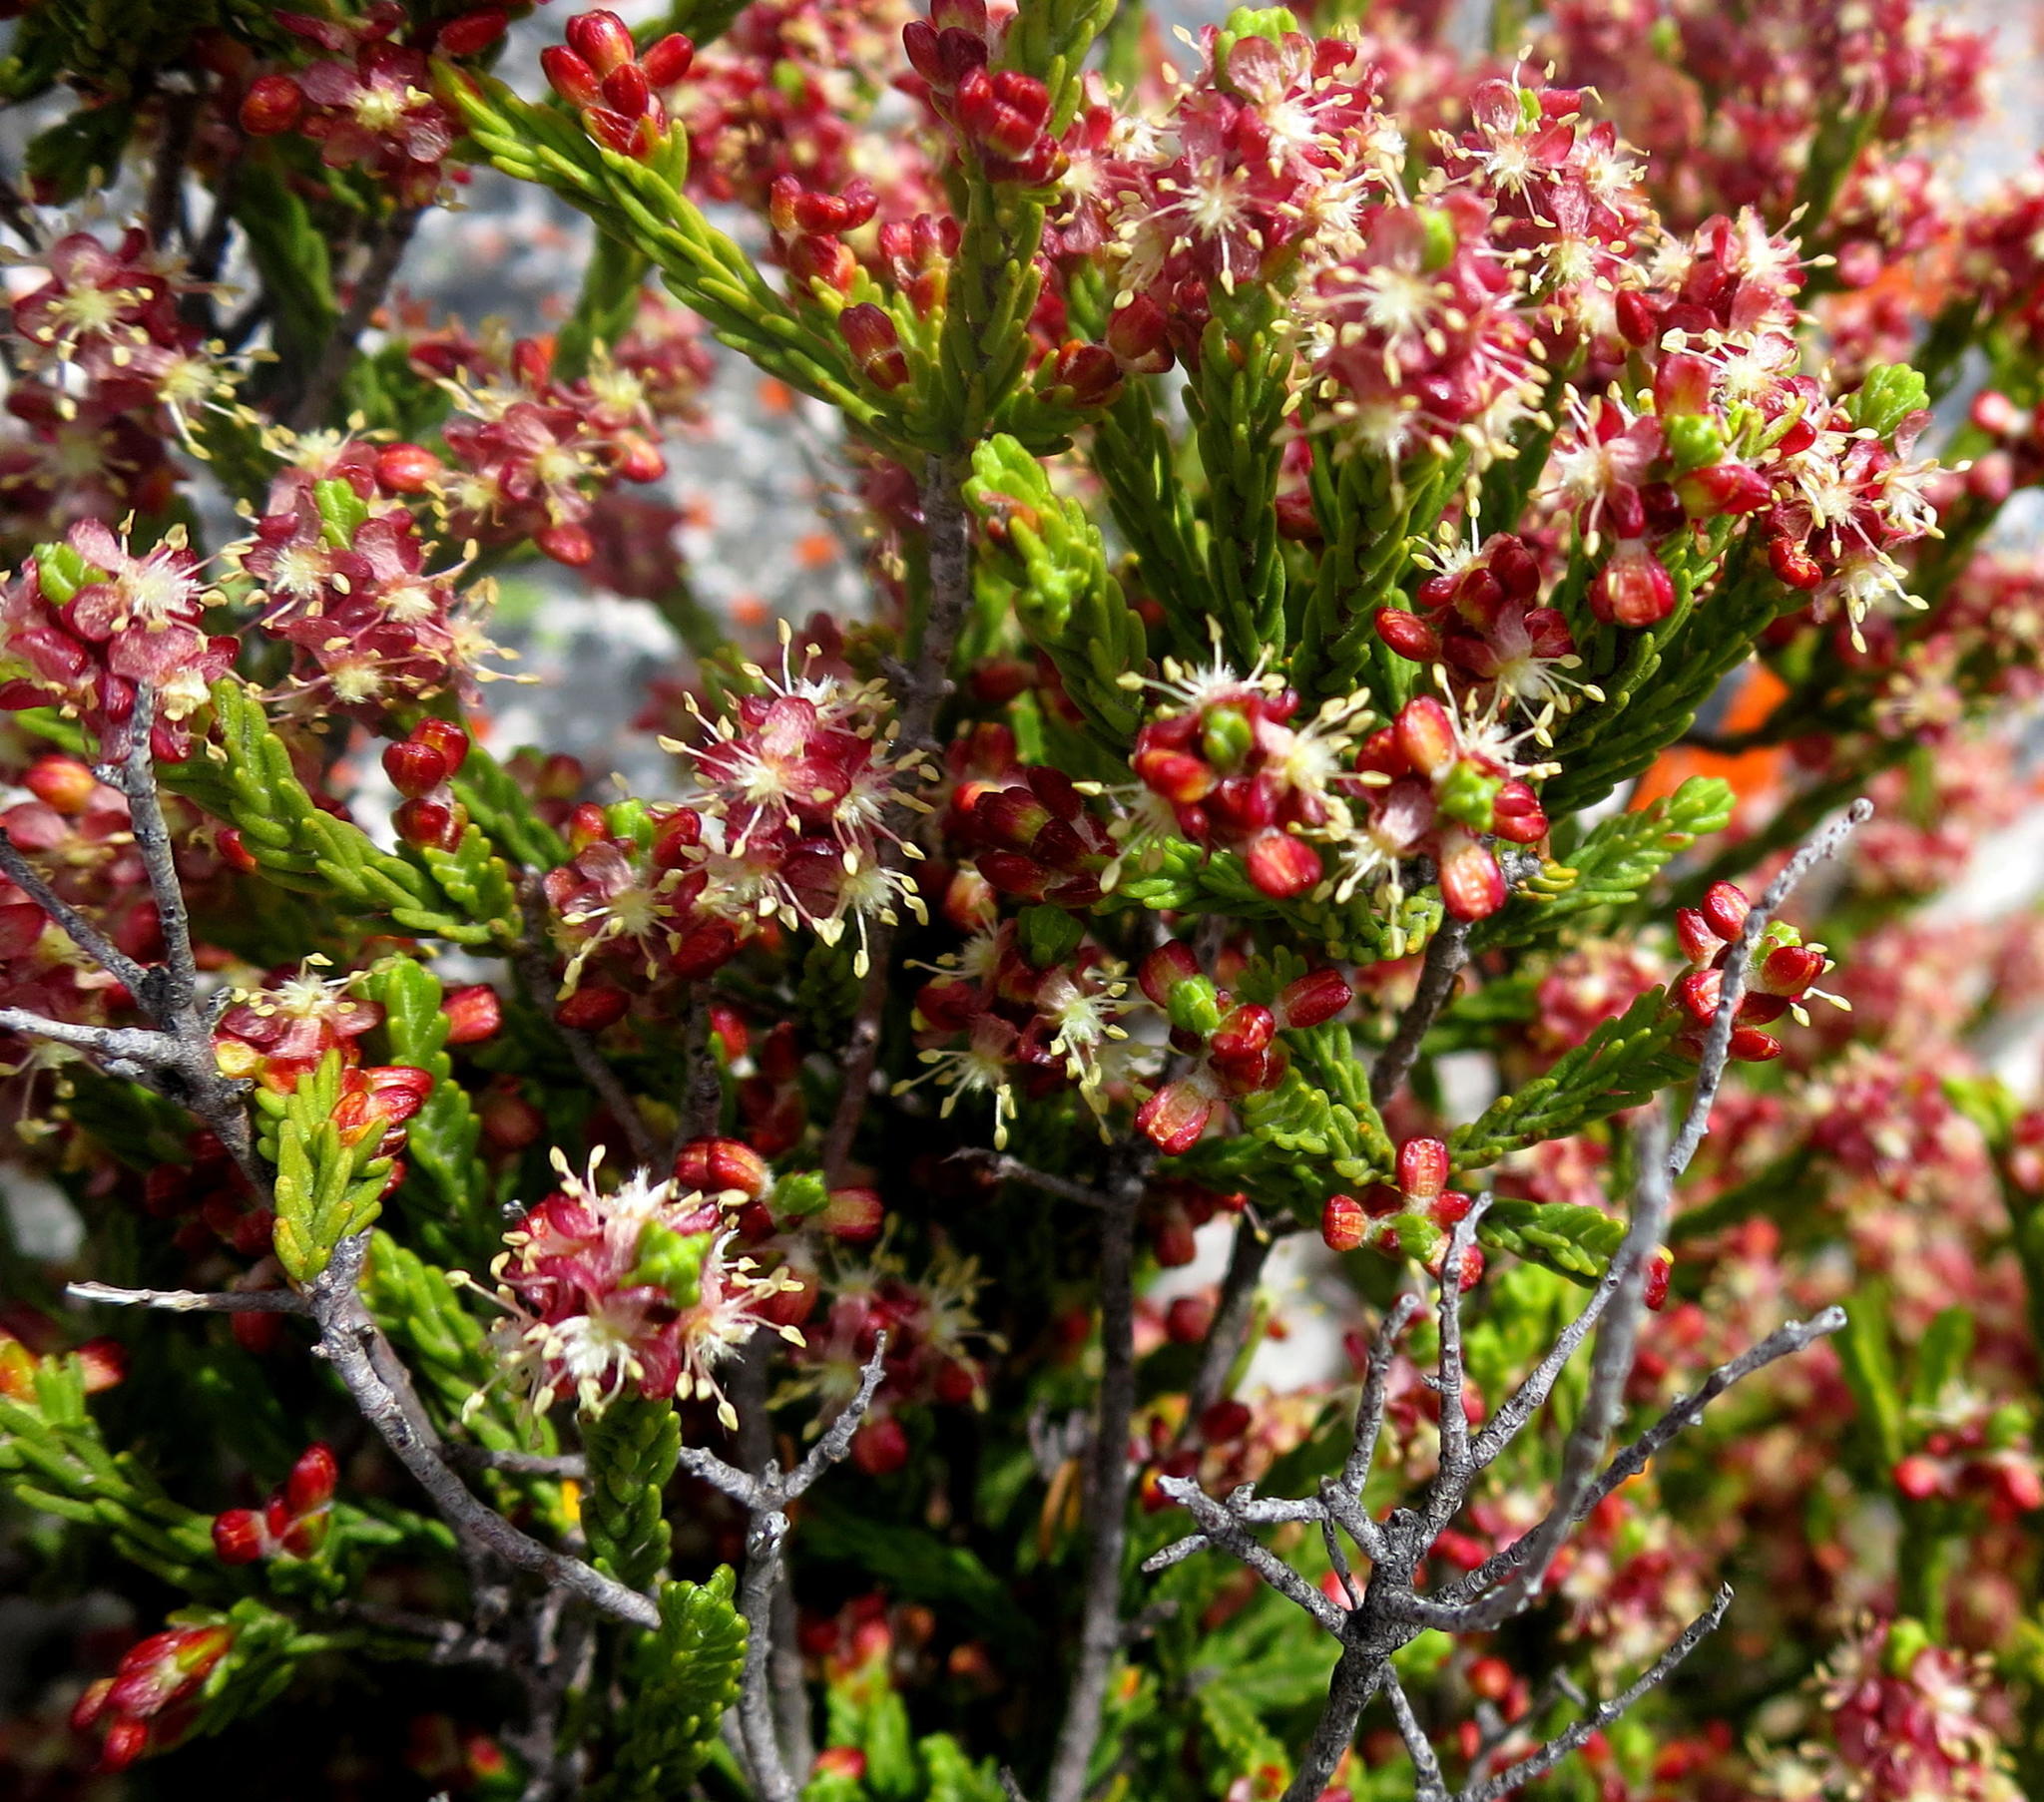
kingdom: Plantae
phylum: Tracheophyta
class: Magnoliopsida
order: Malvales
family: Thymelaeaceae
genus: Passerina
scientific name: Passerina quadrifaria
